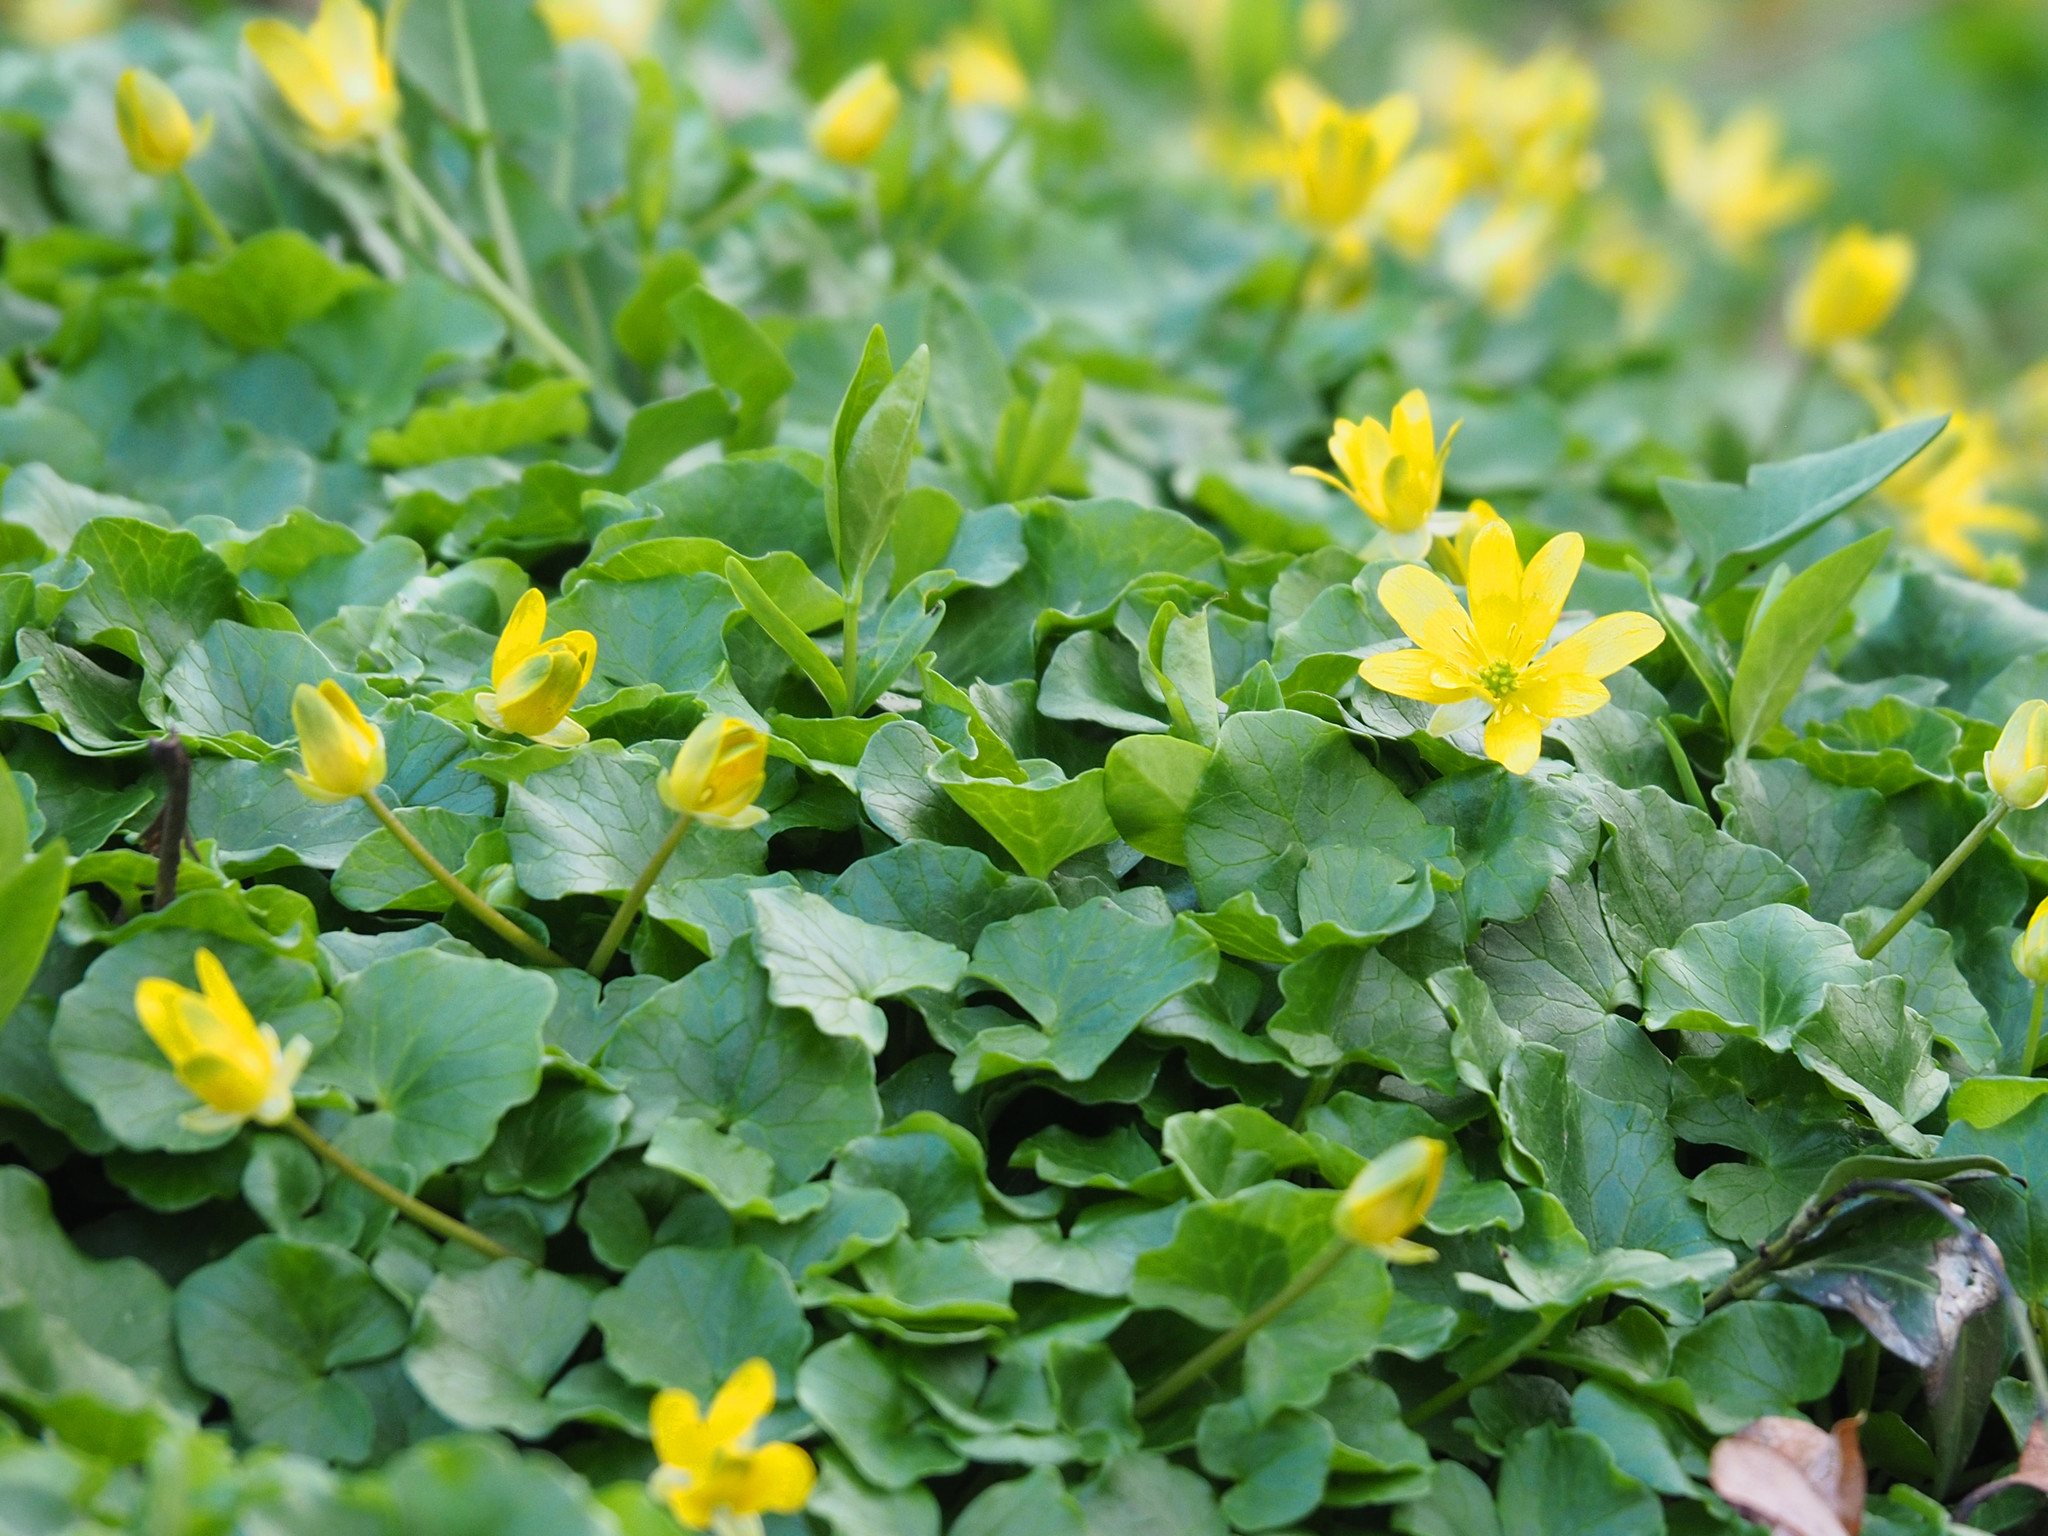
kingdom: Plantae
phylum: Tracheophyta
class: Magnoliopsida
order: Ranunculales
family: Ranunculaceae
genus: Ficaria
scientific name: Ficaria verna
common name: Lesser celandine
